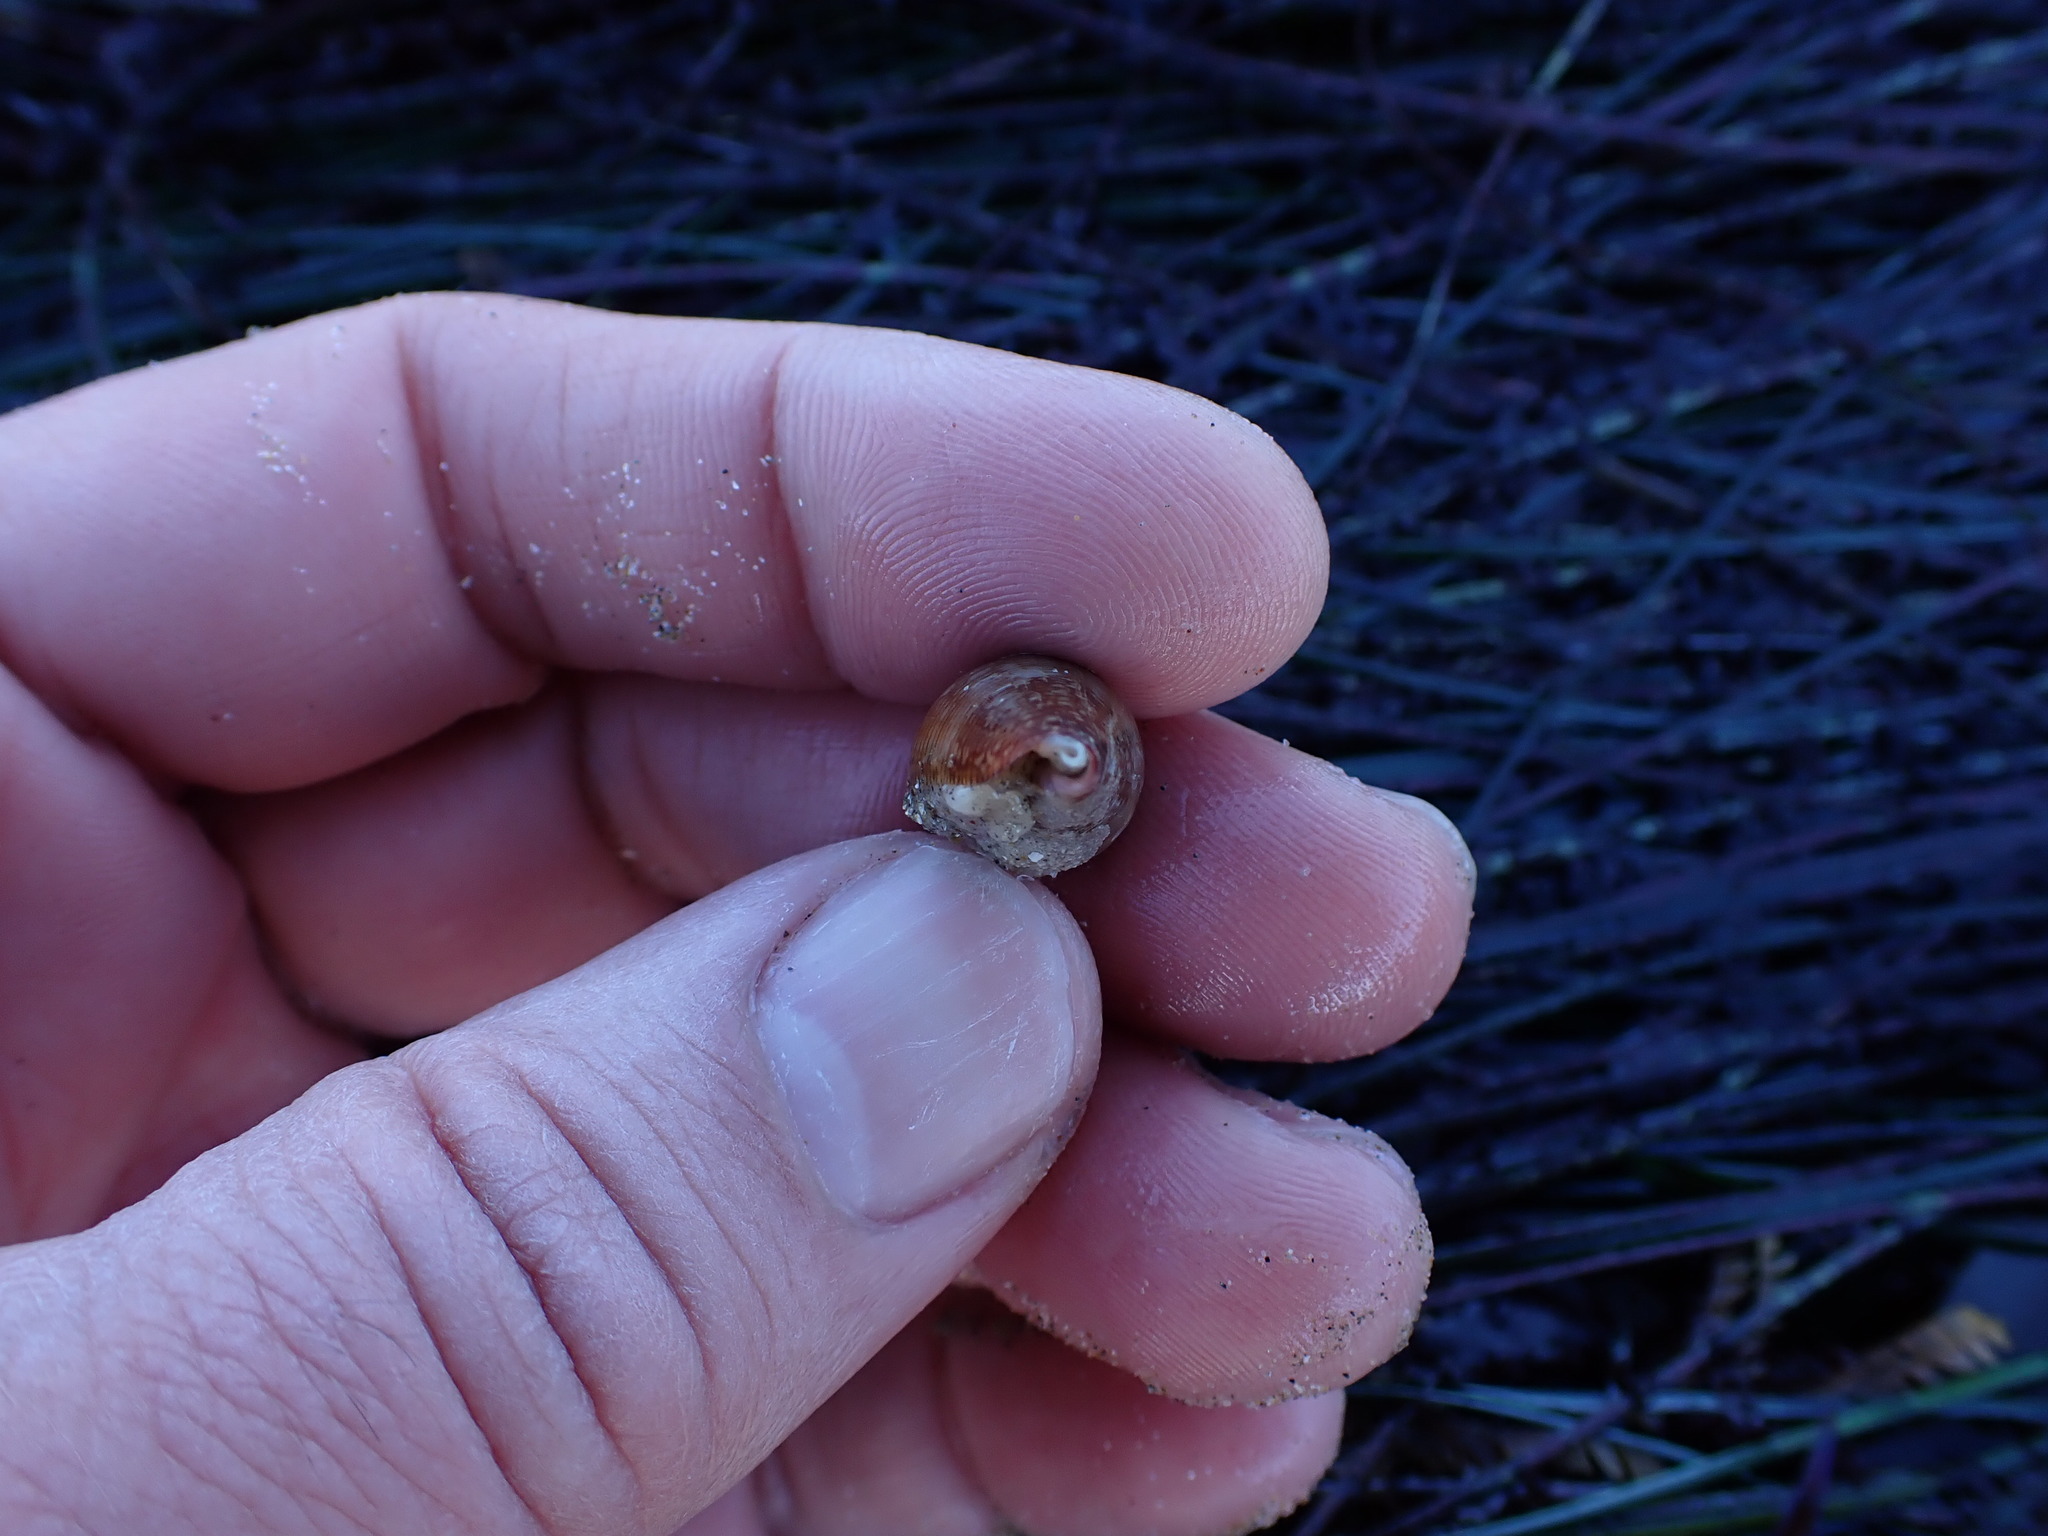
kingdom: Animalia
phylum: Mollusca
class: Gastropoda
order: Neogastropoda
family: Conidae
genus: Californiconus
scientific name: Californiconus californicus
